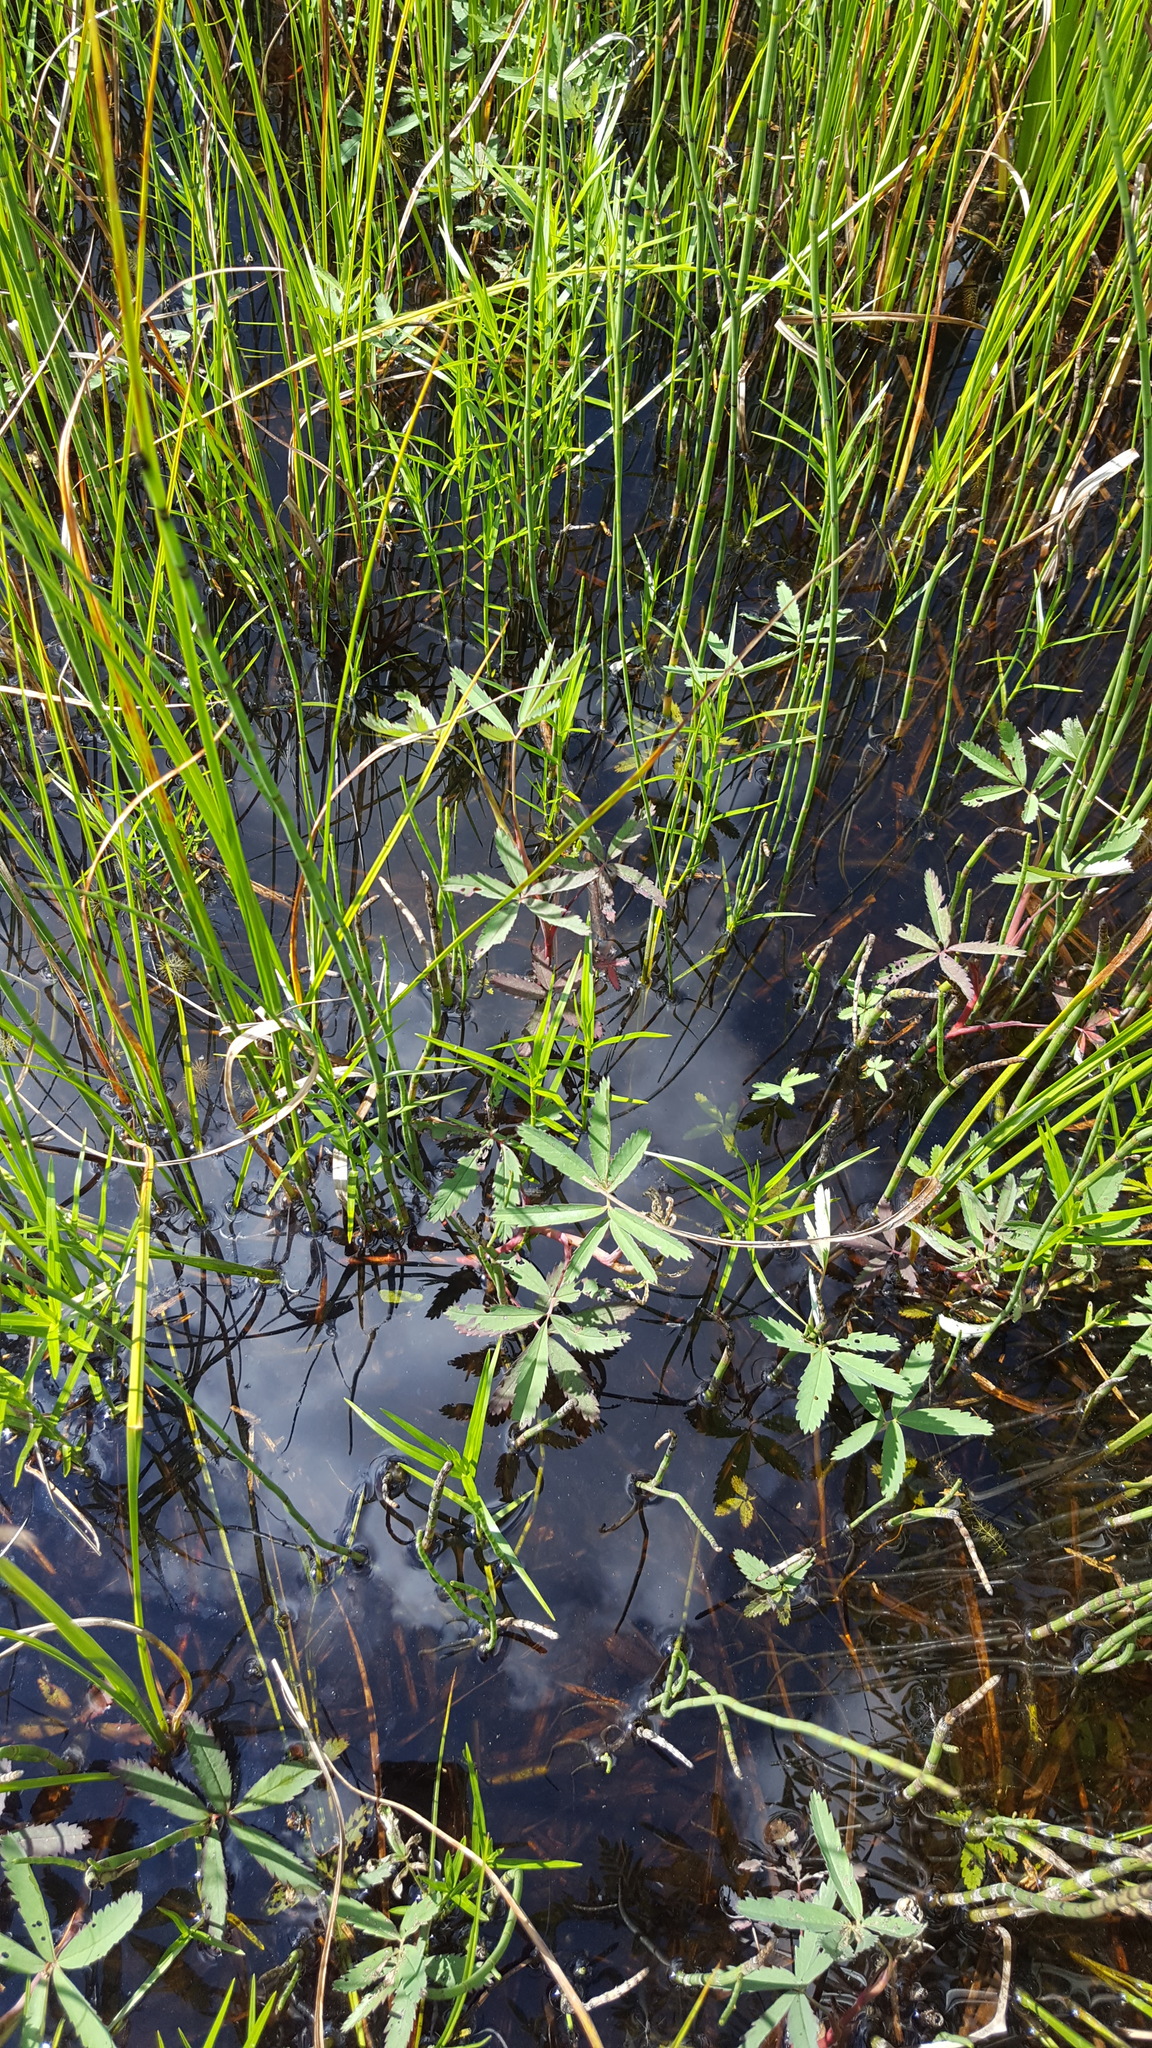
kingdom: Plantae
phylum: Tracheophyta
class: Magnoliopsida
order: Rosales
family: Rosaceae
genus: Comarum
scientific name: Comarum palustre
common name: Marsh cinquefoil
